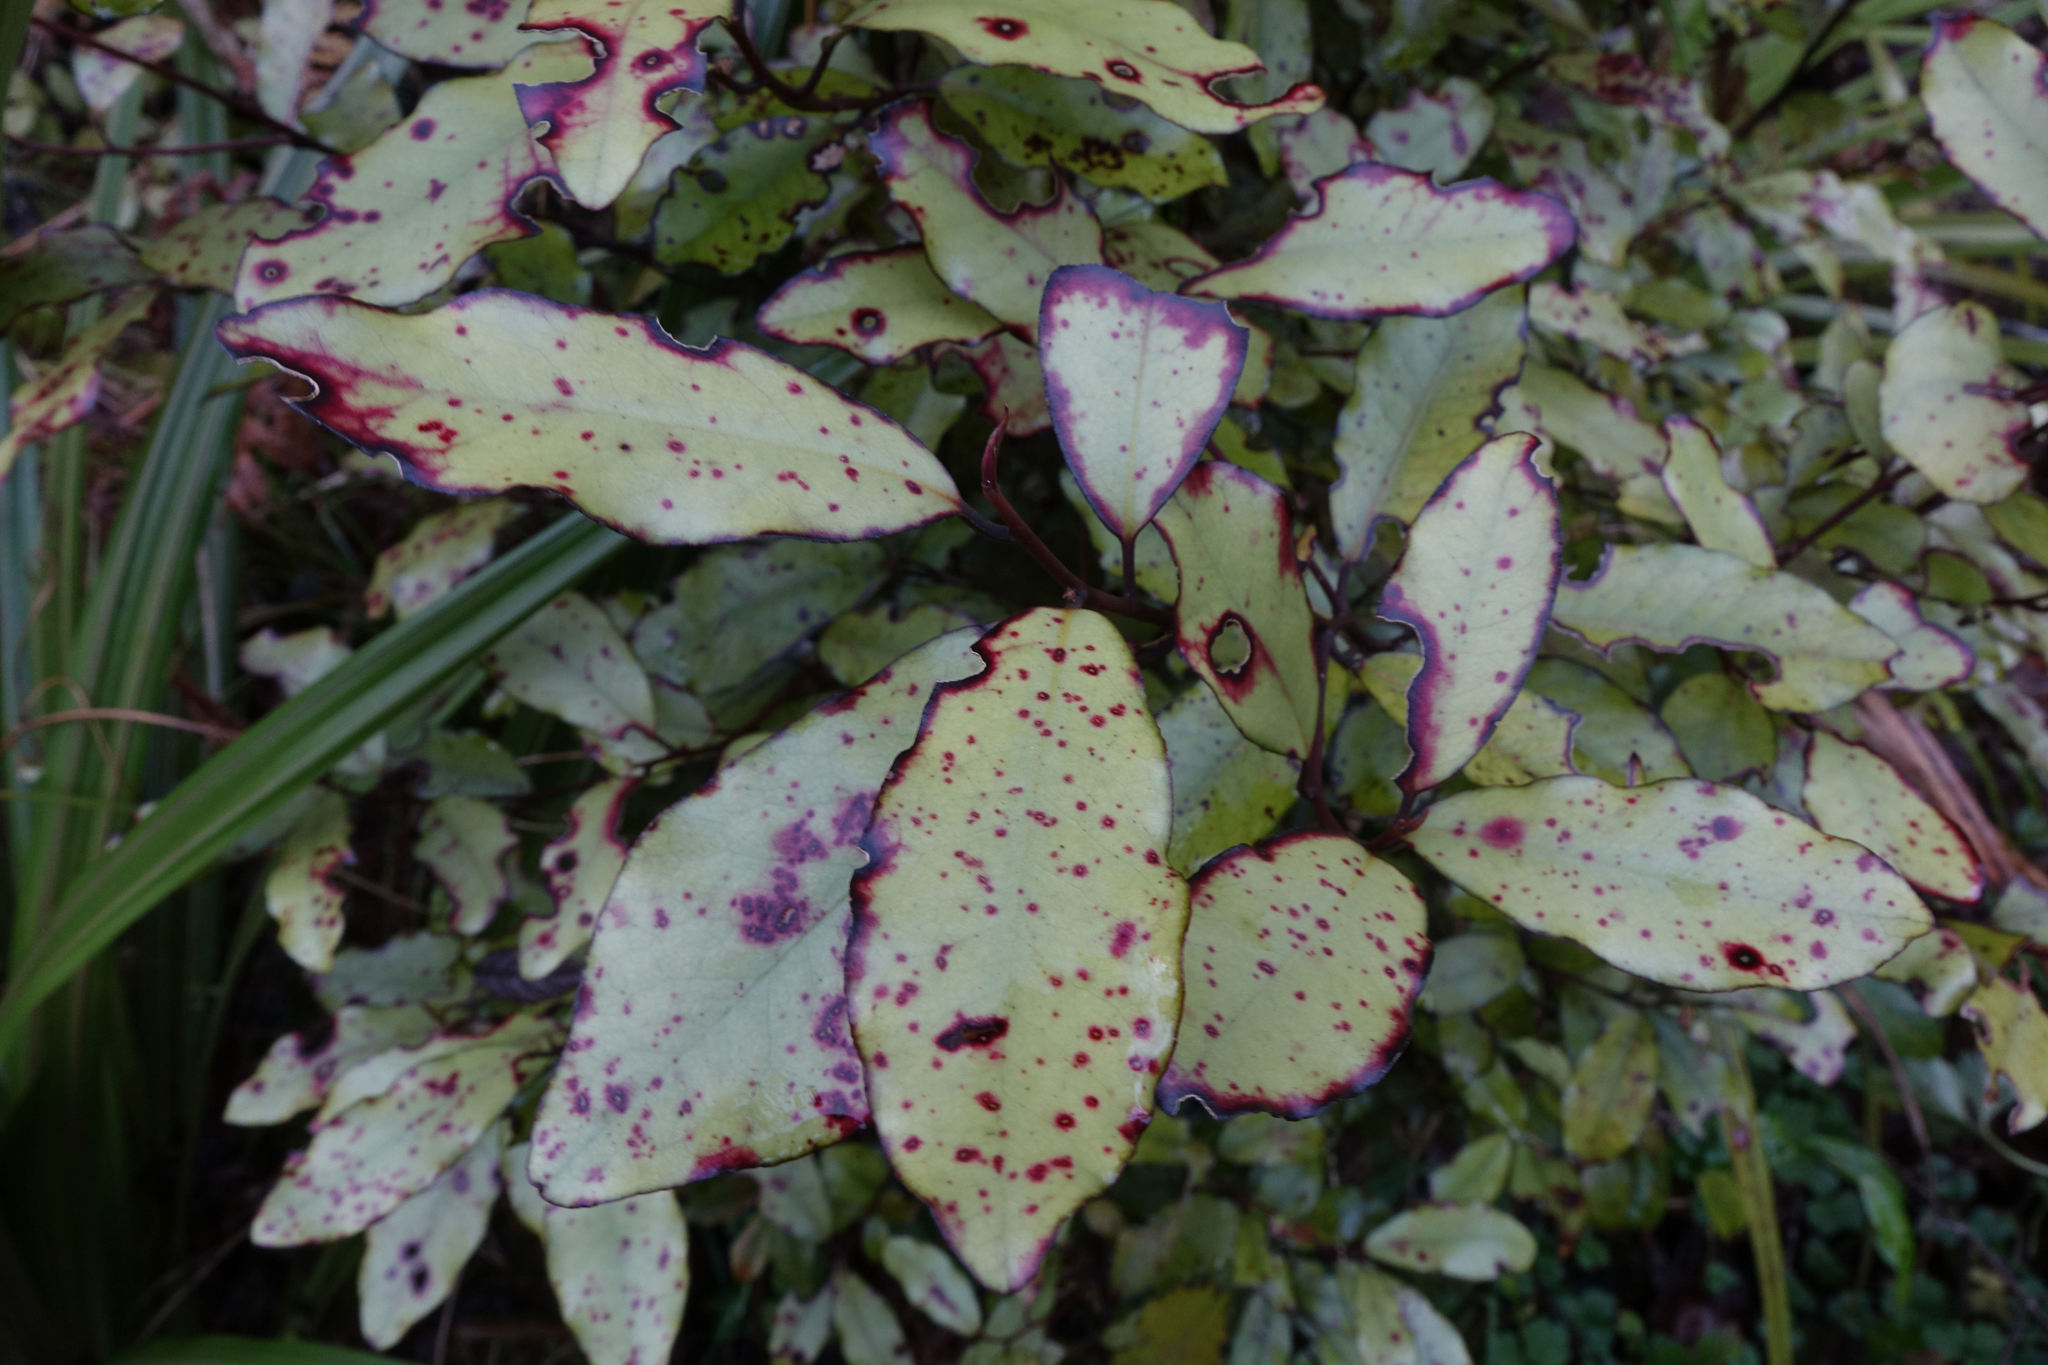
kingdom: Plantae
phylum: Tracheophyta
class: Magnoliopsida
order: Canellales
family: Winteraceae
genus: Pseudowintera
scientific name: Pseudowintera colorata
